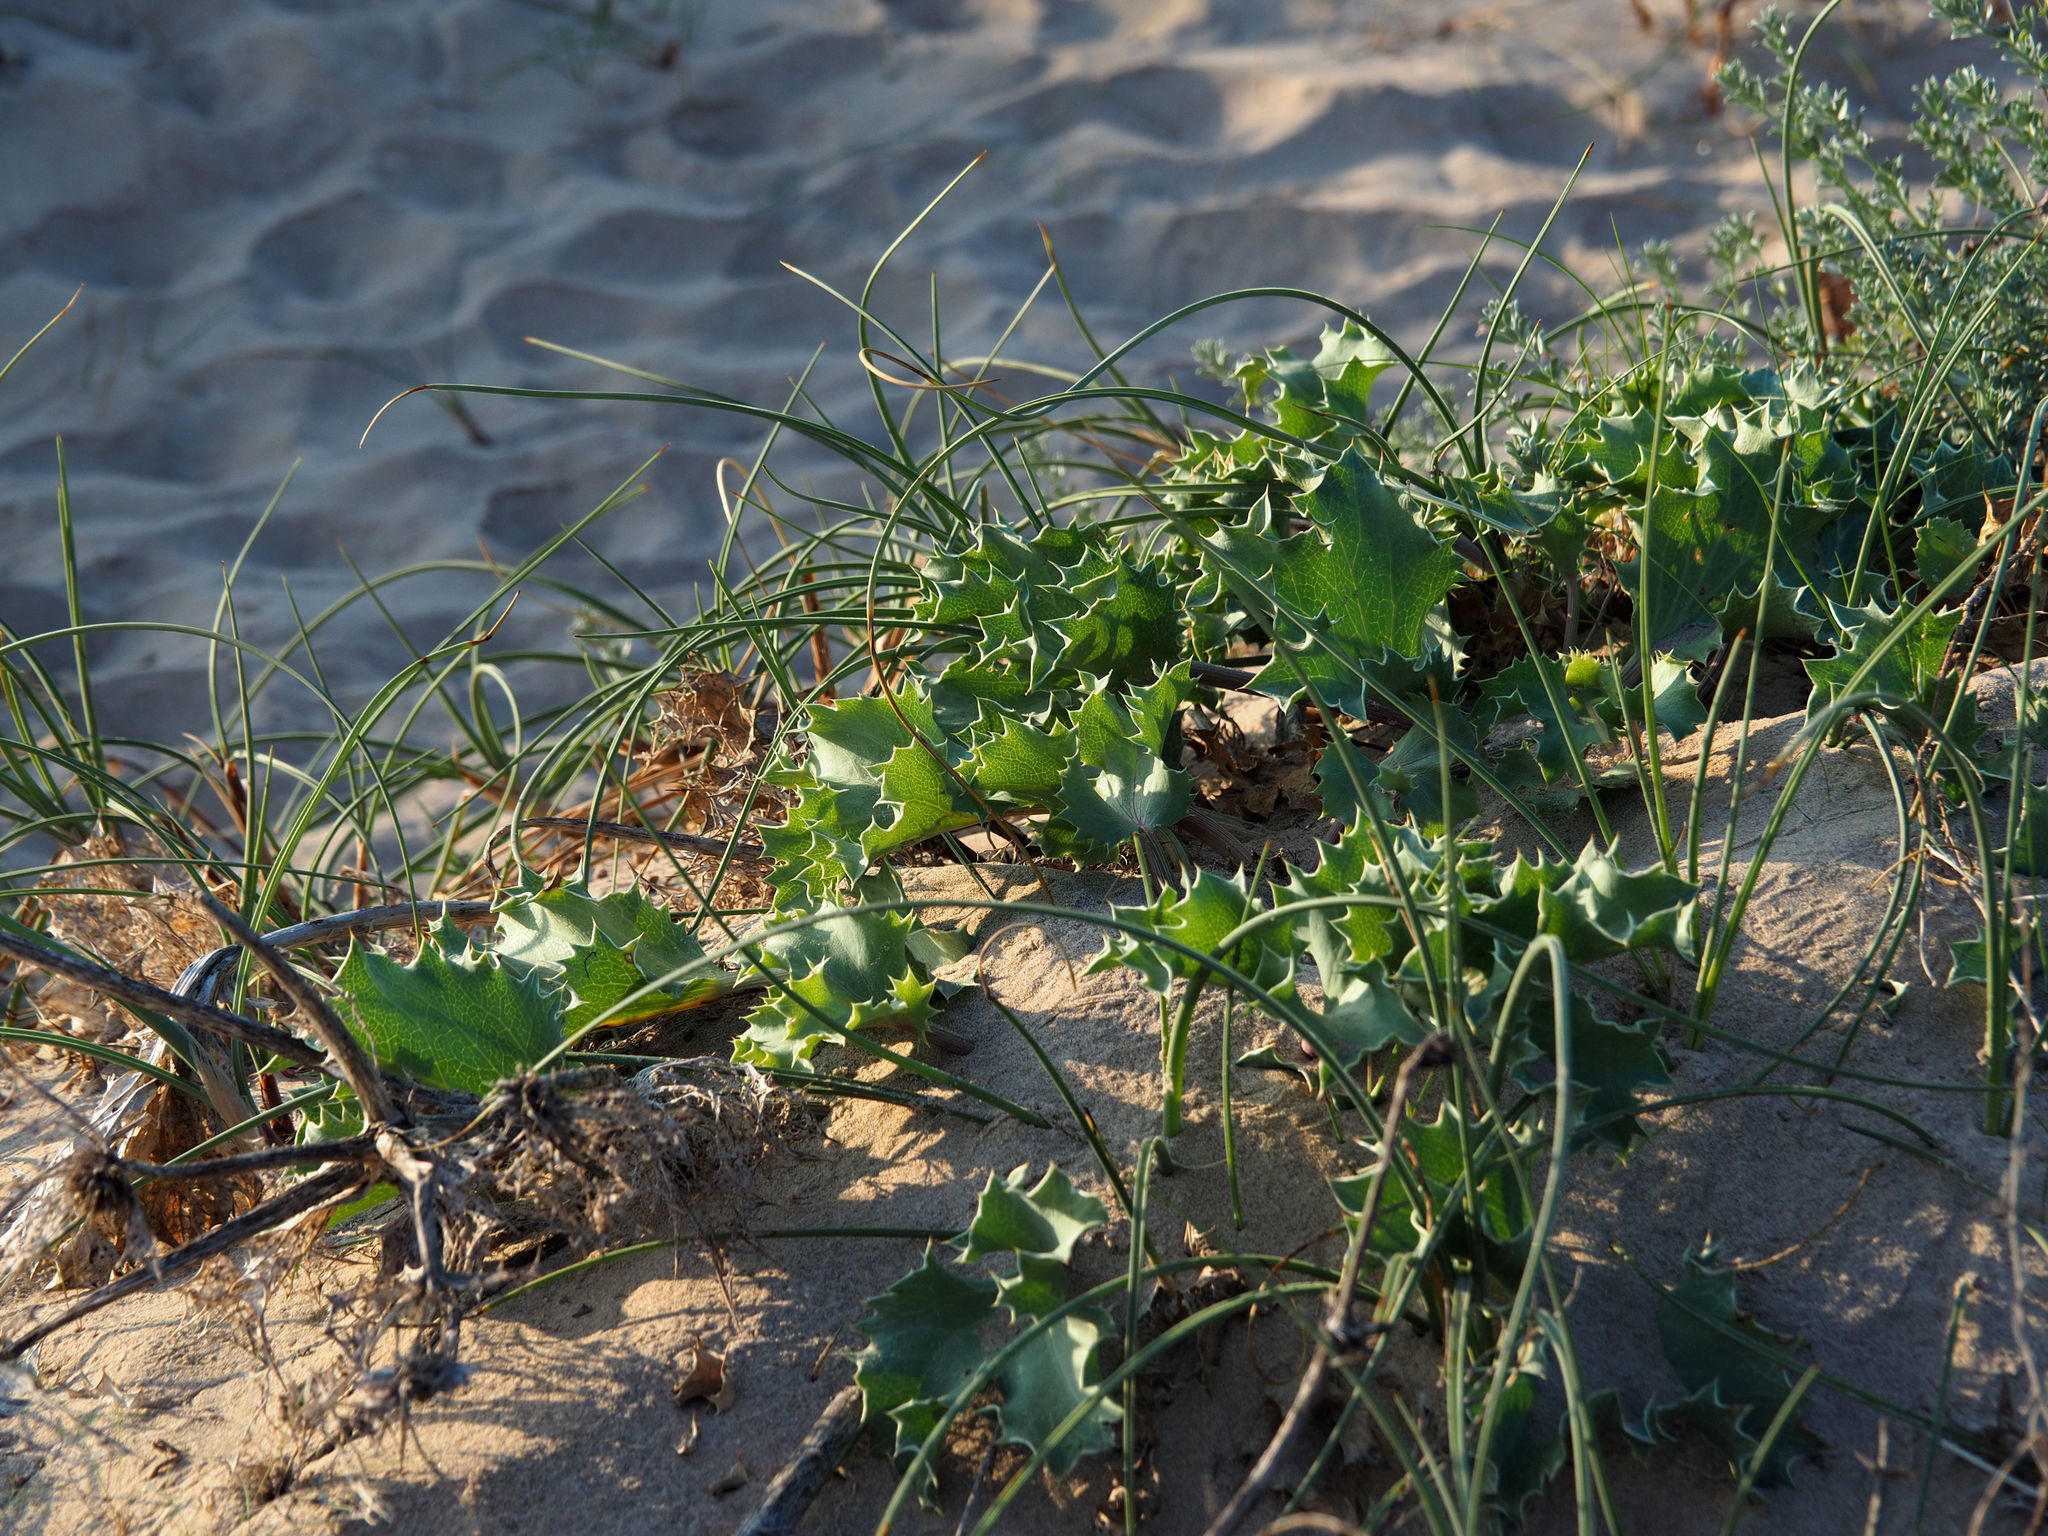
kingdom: Plantae
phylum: Tracheophyta
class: Magnoliopsida
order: Apiales
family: Apiaceae
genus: Eryngium
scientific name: Eryngium maritimum
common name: Sea-holly
